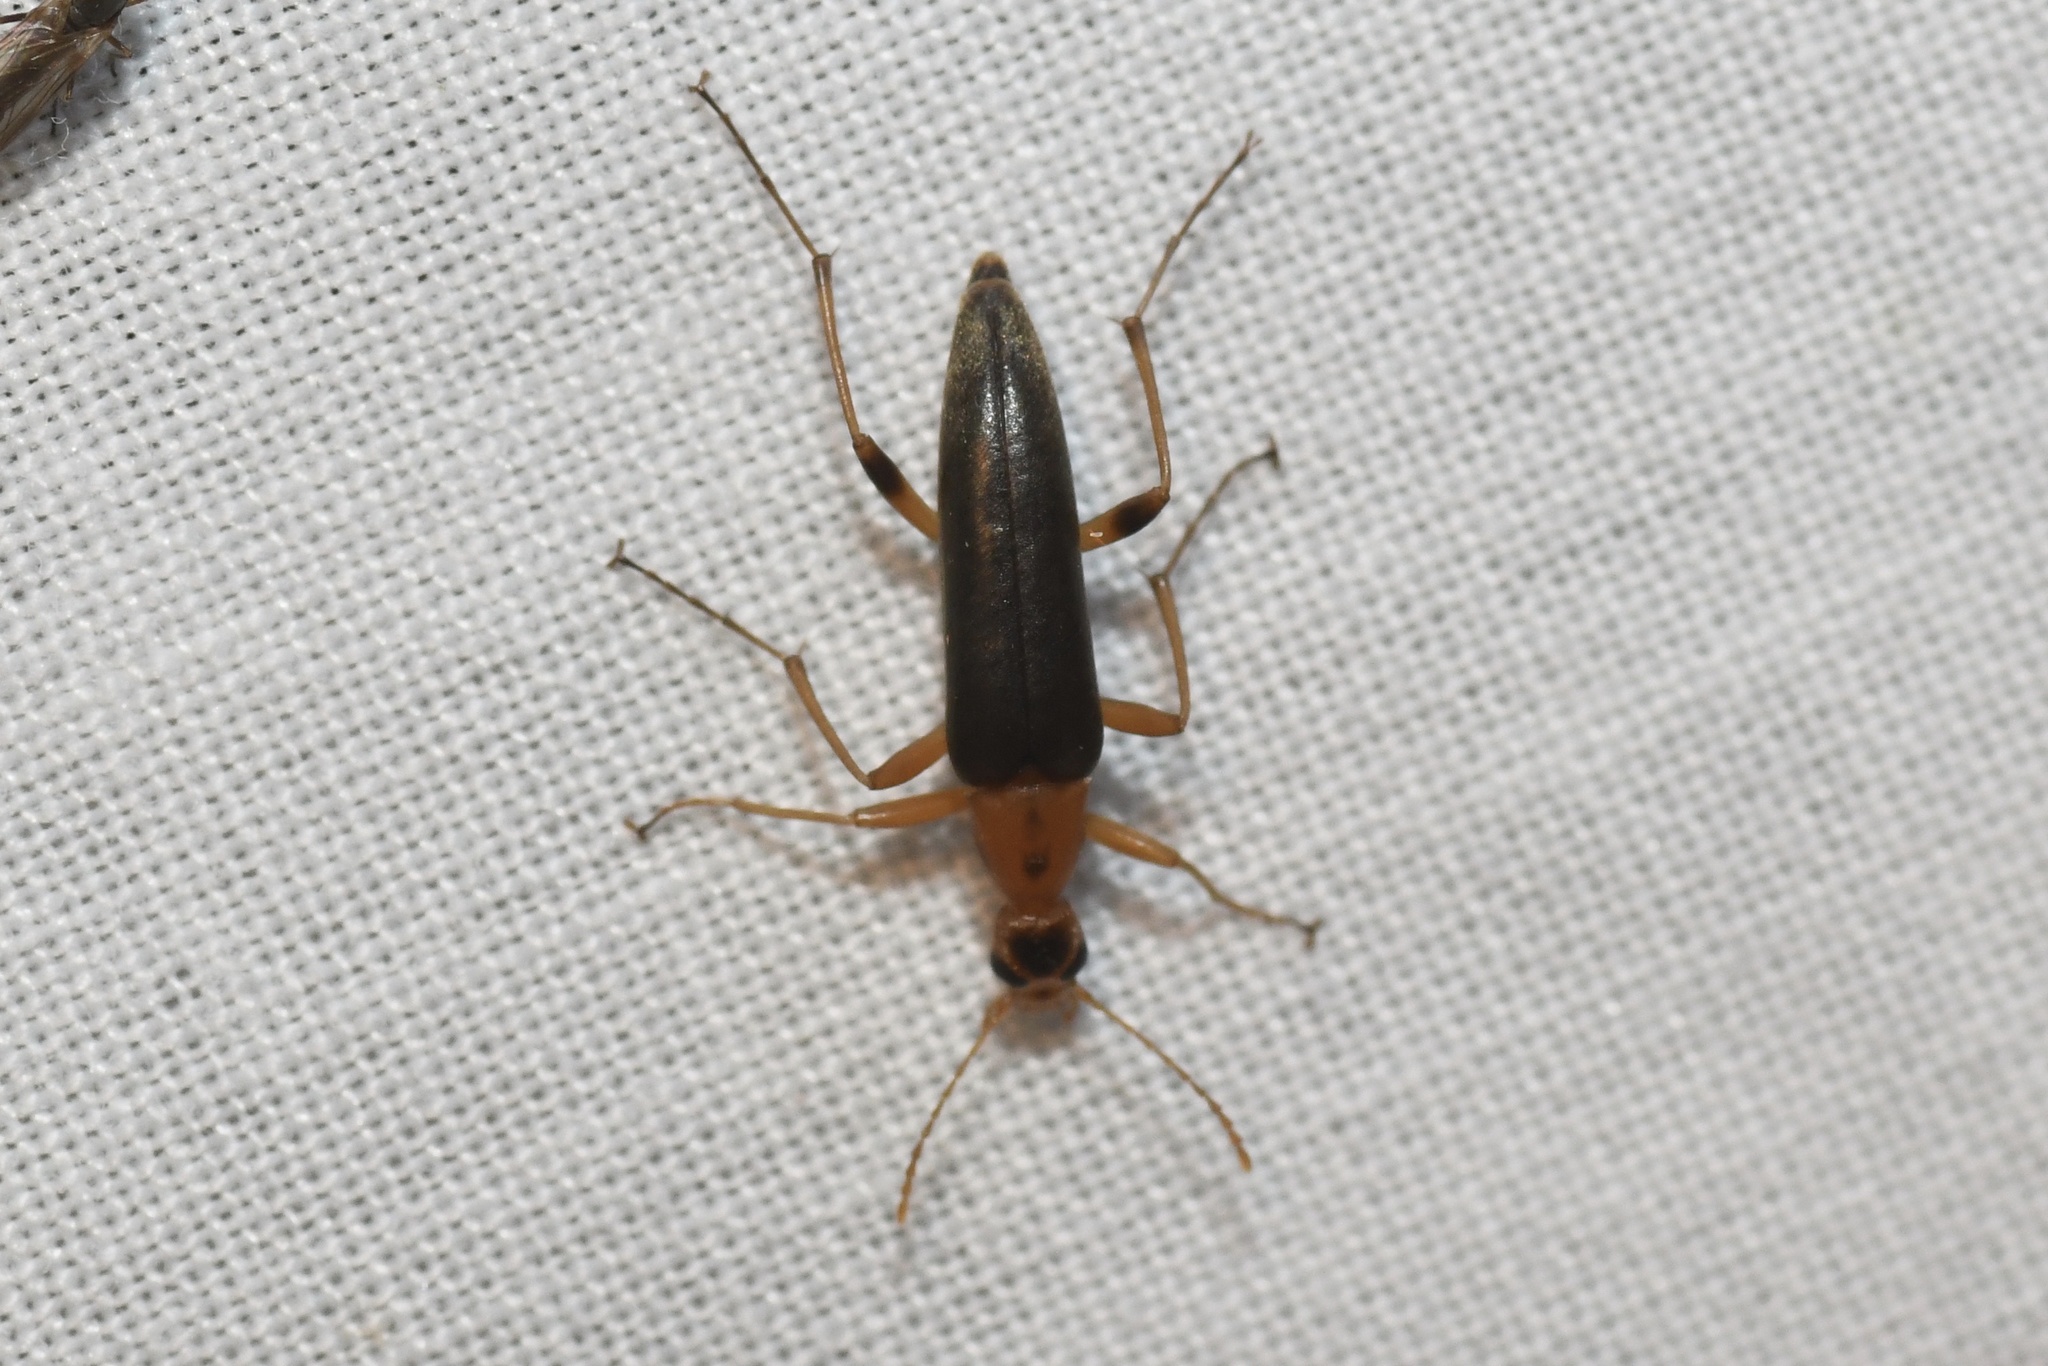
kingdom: Animalia
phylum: Arthropoda
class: Insecta
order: Coleoptera
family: Stenotrachelidae
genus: Cephaloon
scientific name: Cephaloon lepturides
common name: False leptura beetle
